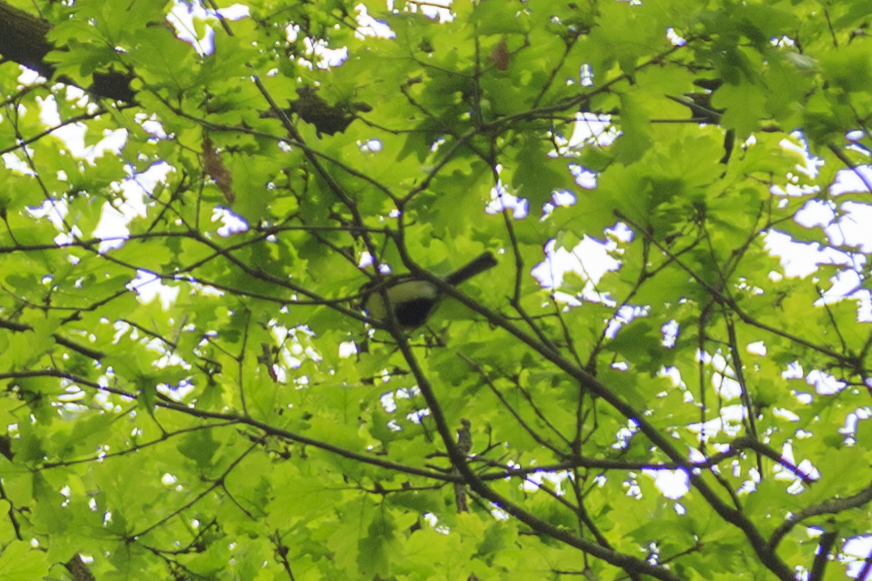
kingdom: Animalia
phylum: Chordata
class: Aves
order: Passeriformes
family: Paridae
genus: Parus
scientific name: Parus major
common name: Great tit
